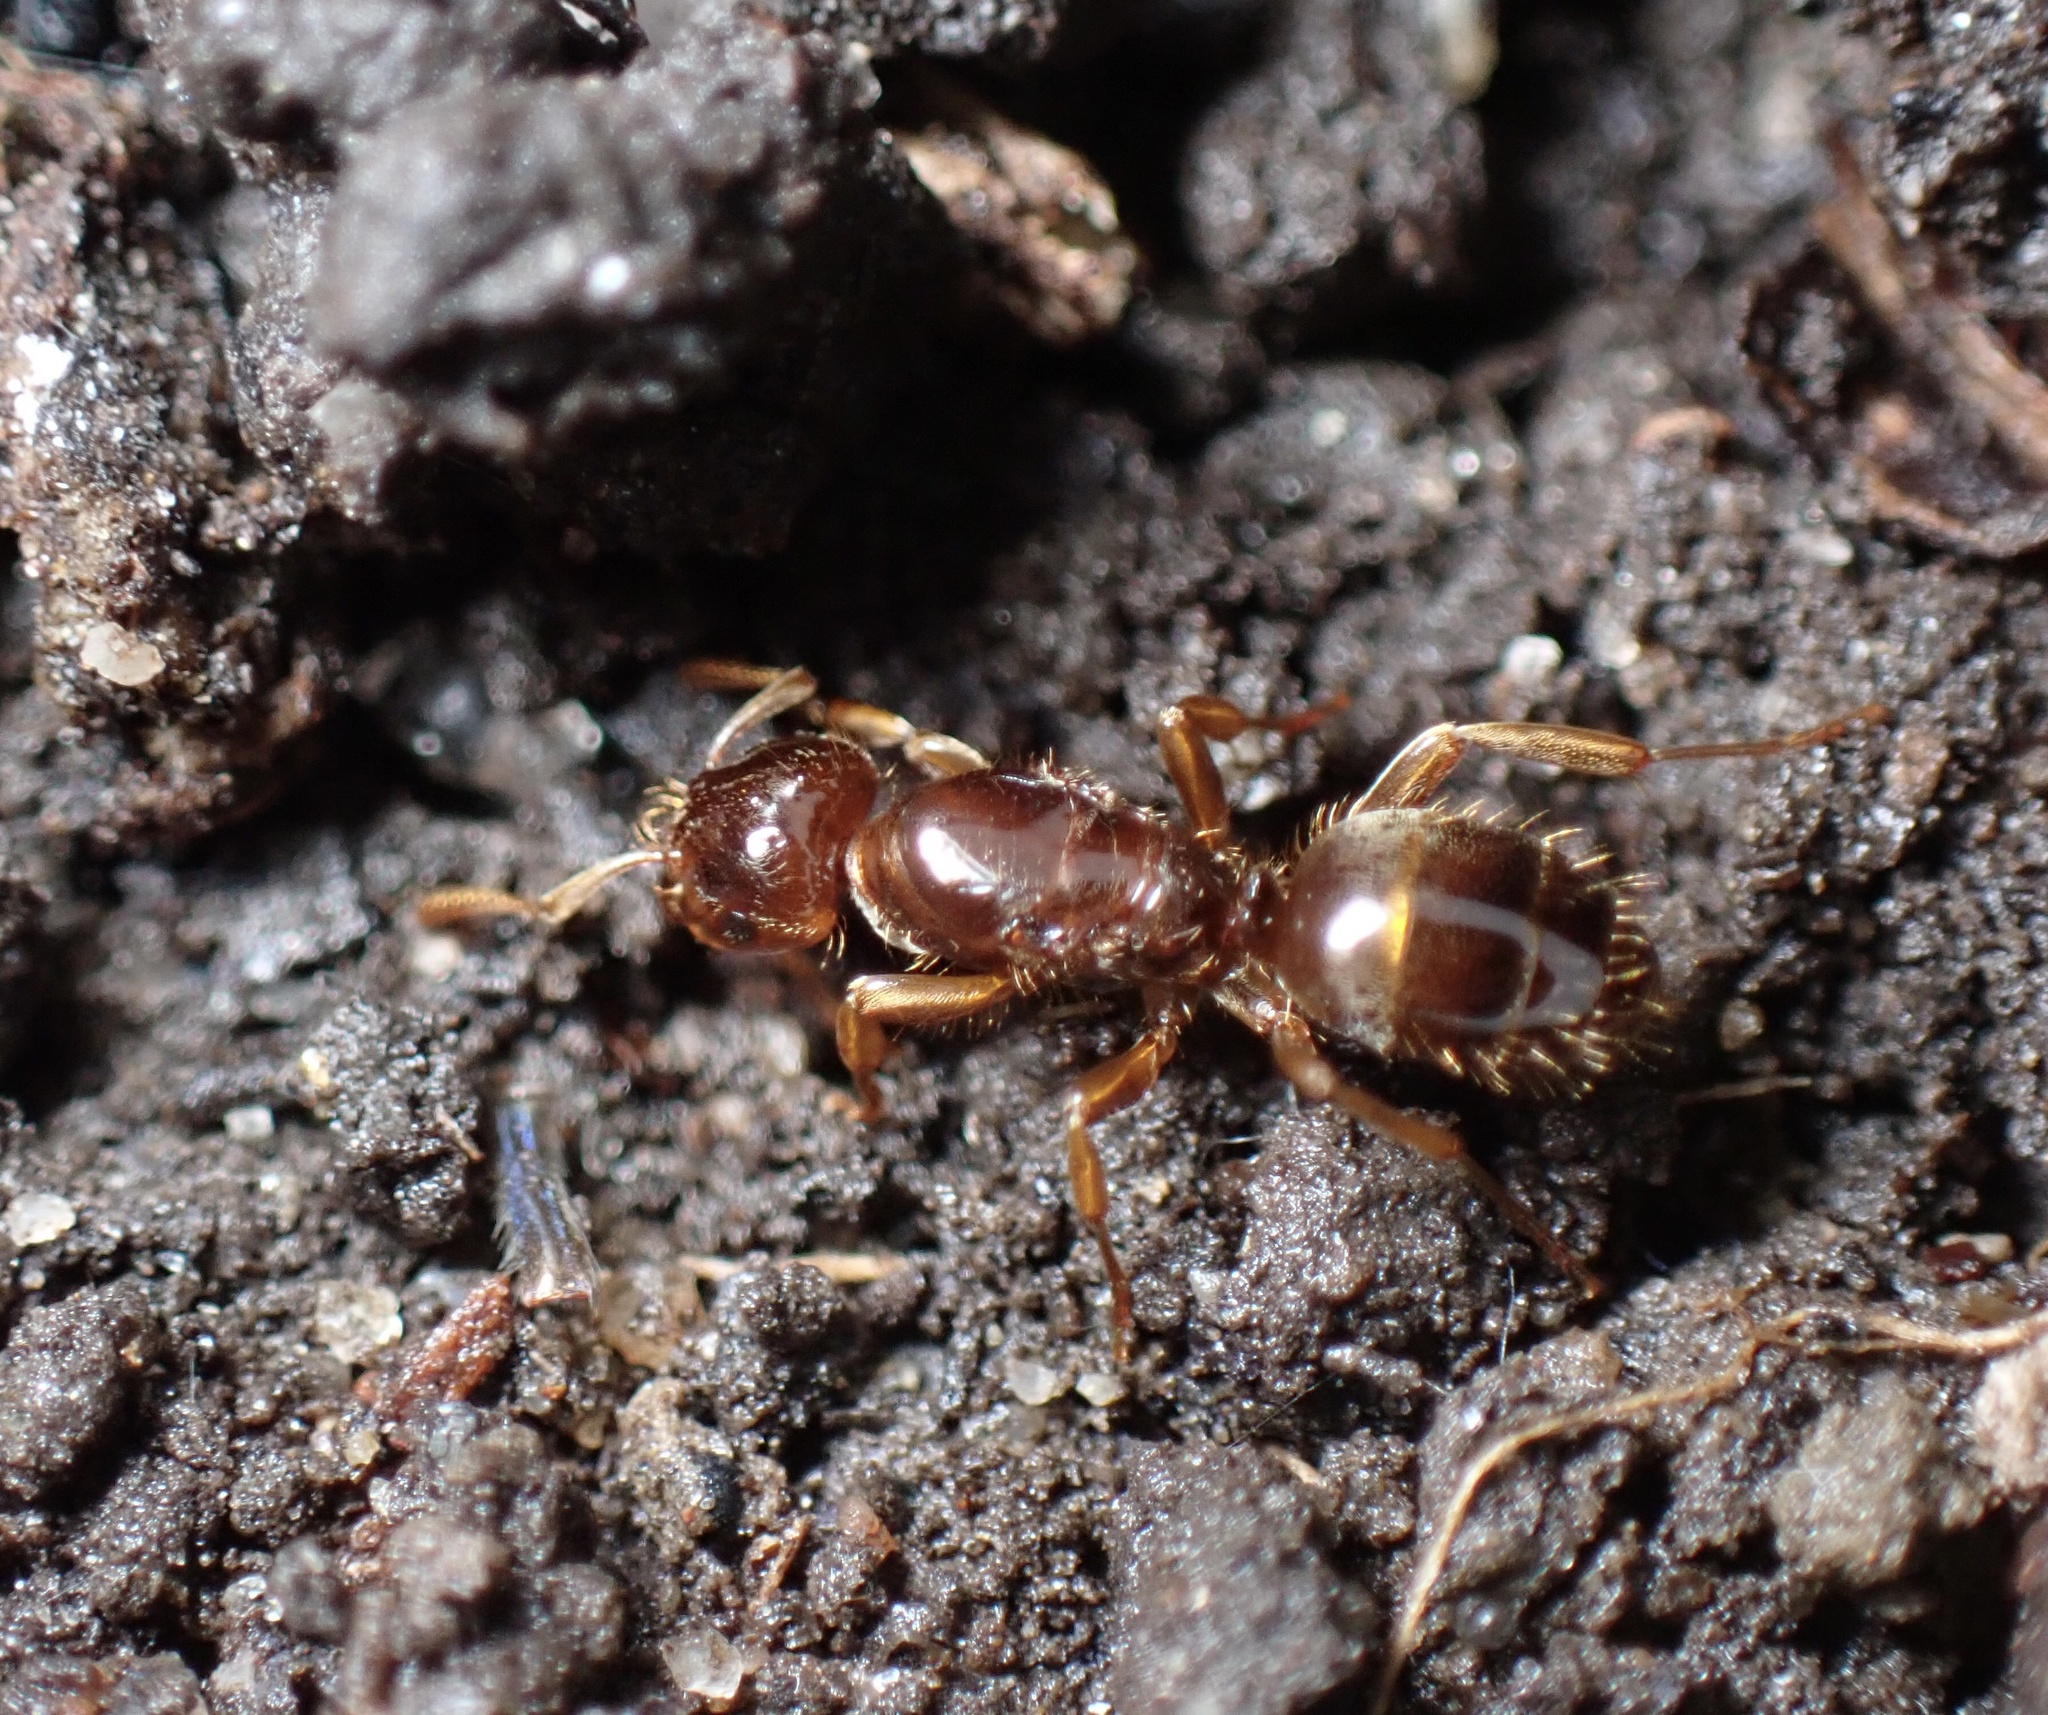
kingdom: Animalia
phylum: Arthropoda
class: Insecta
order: Hymenoptera
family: Formicidae
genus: Lasius
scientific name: Lasius claviger
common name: Common citronella ant
